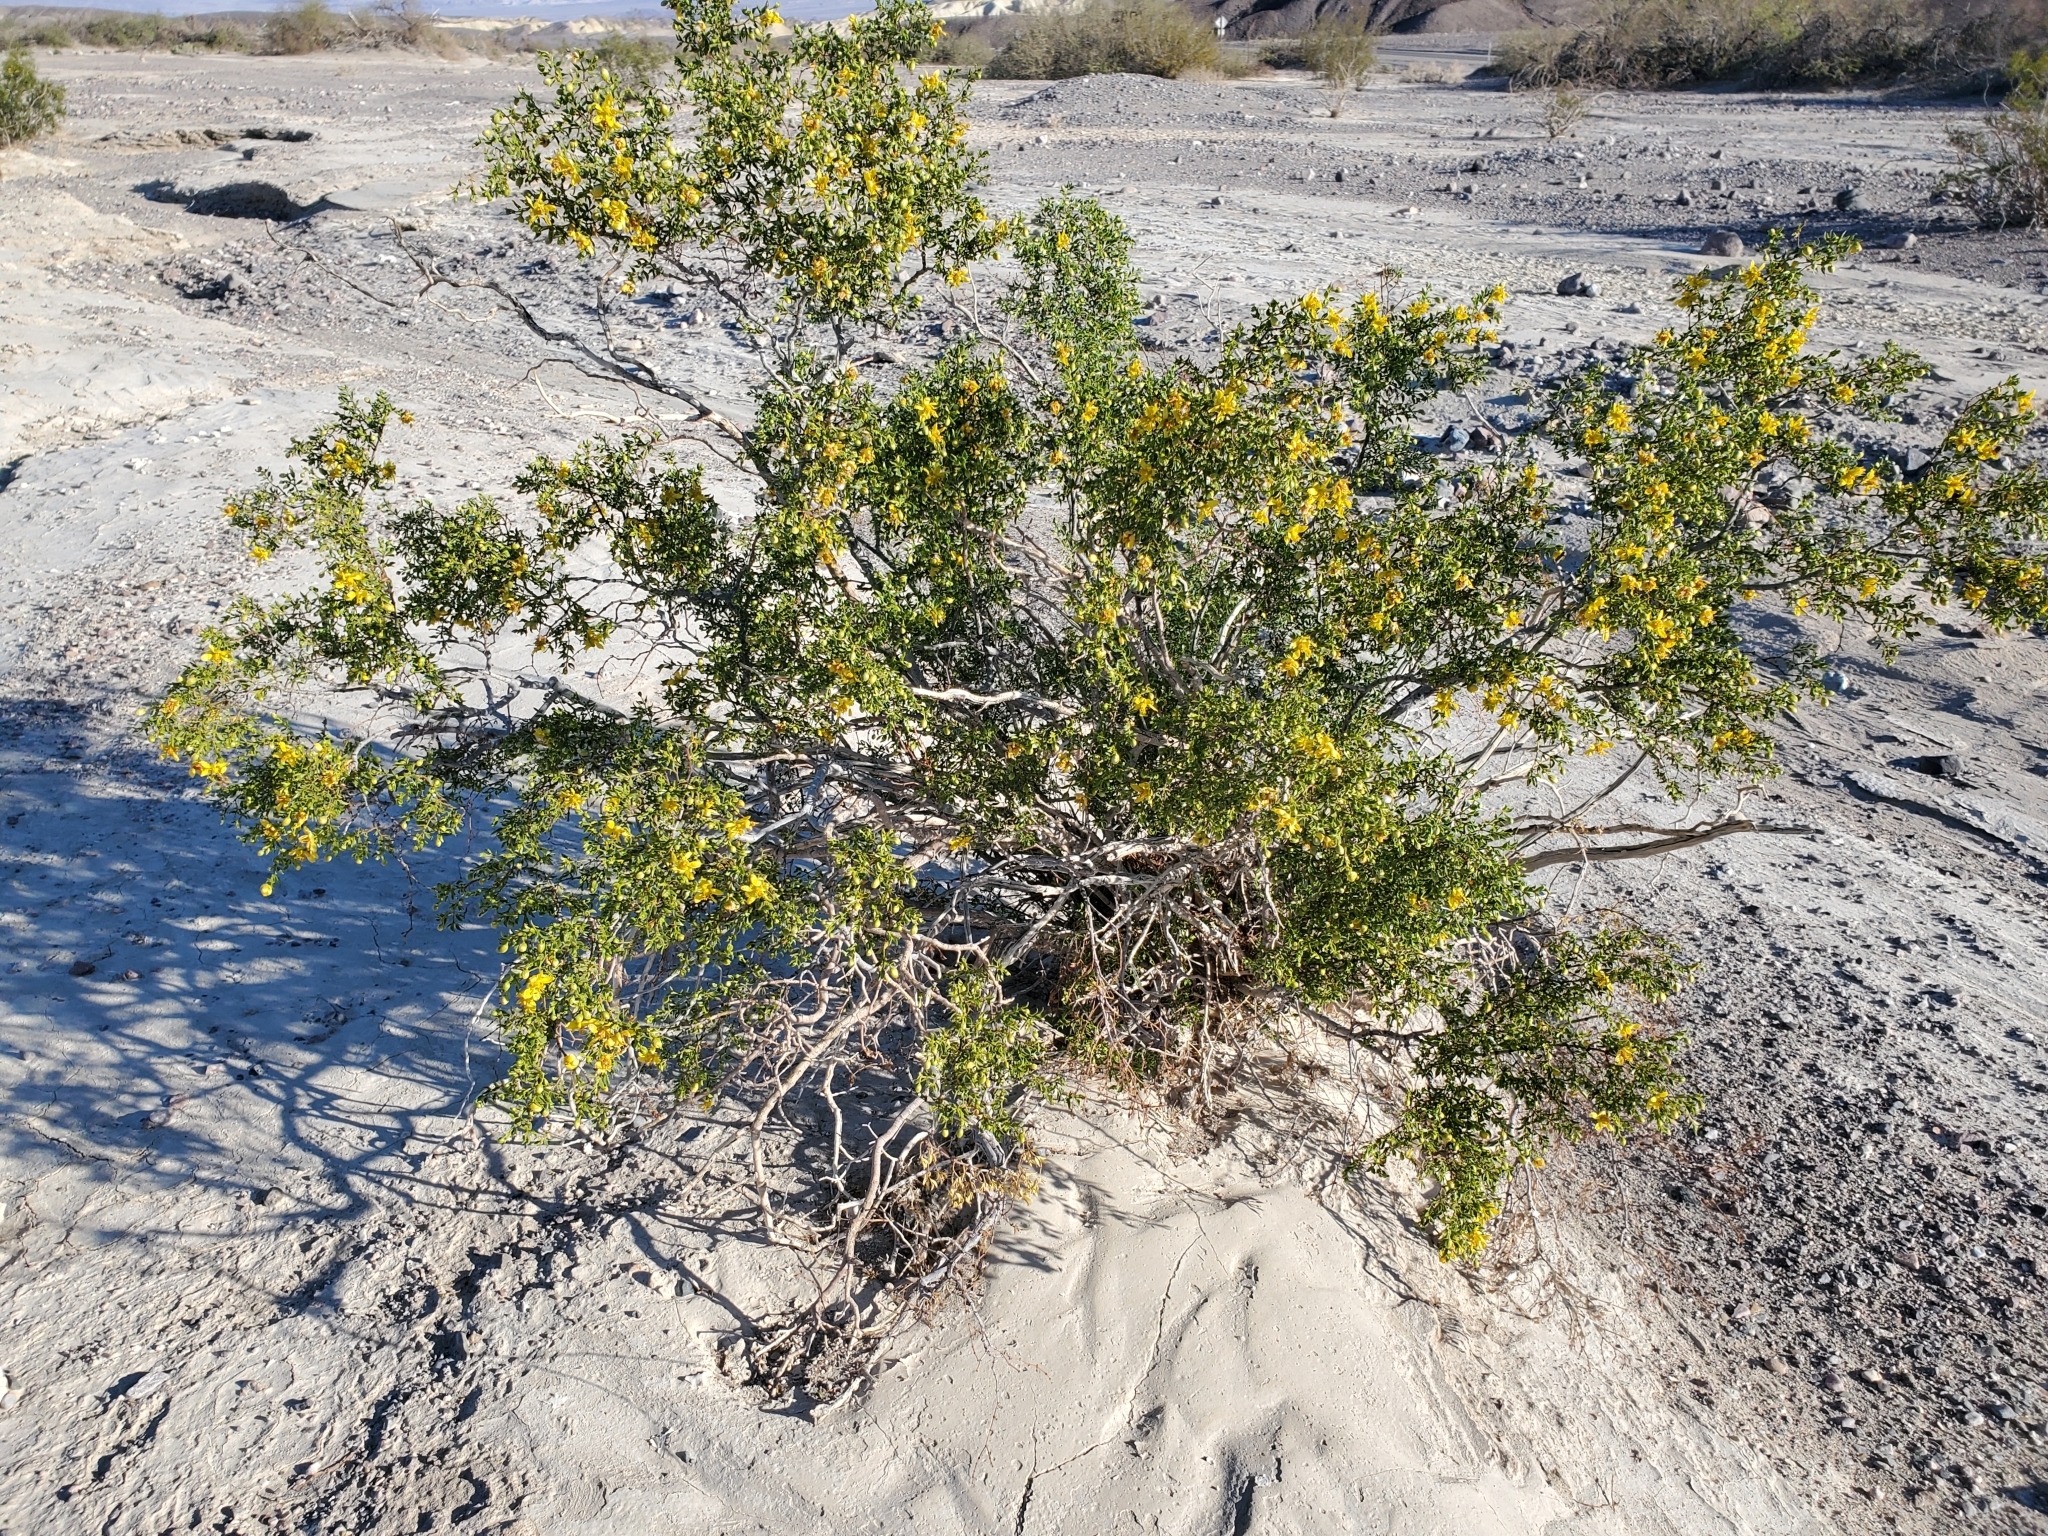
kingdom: Plantae
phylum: Tracheophyta
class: Magnoliopsida
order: Zygophyllales
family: Zygophyllaceae
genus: Larrea
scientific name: Larrea tridentata
